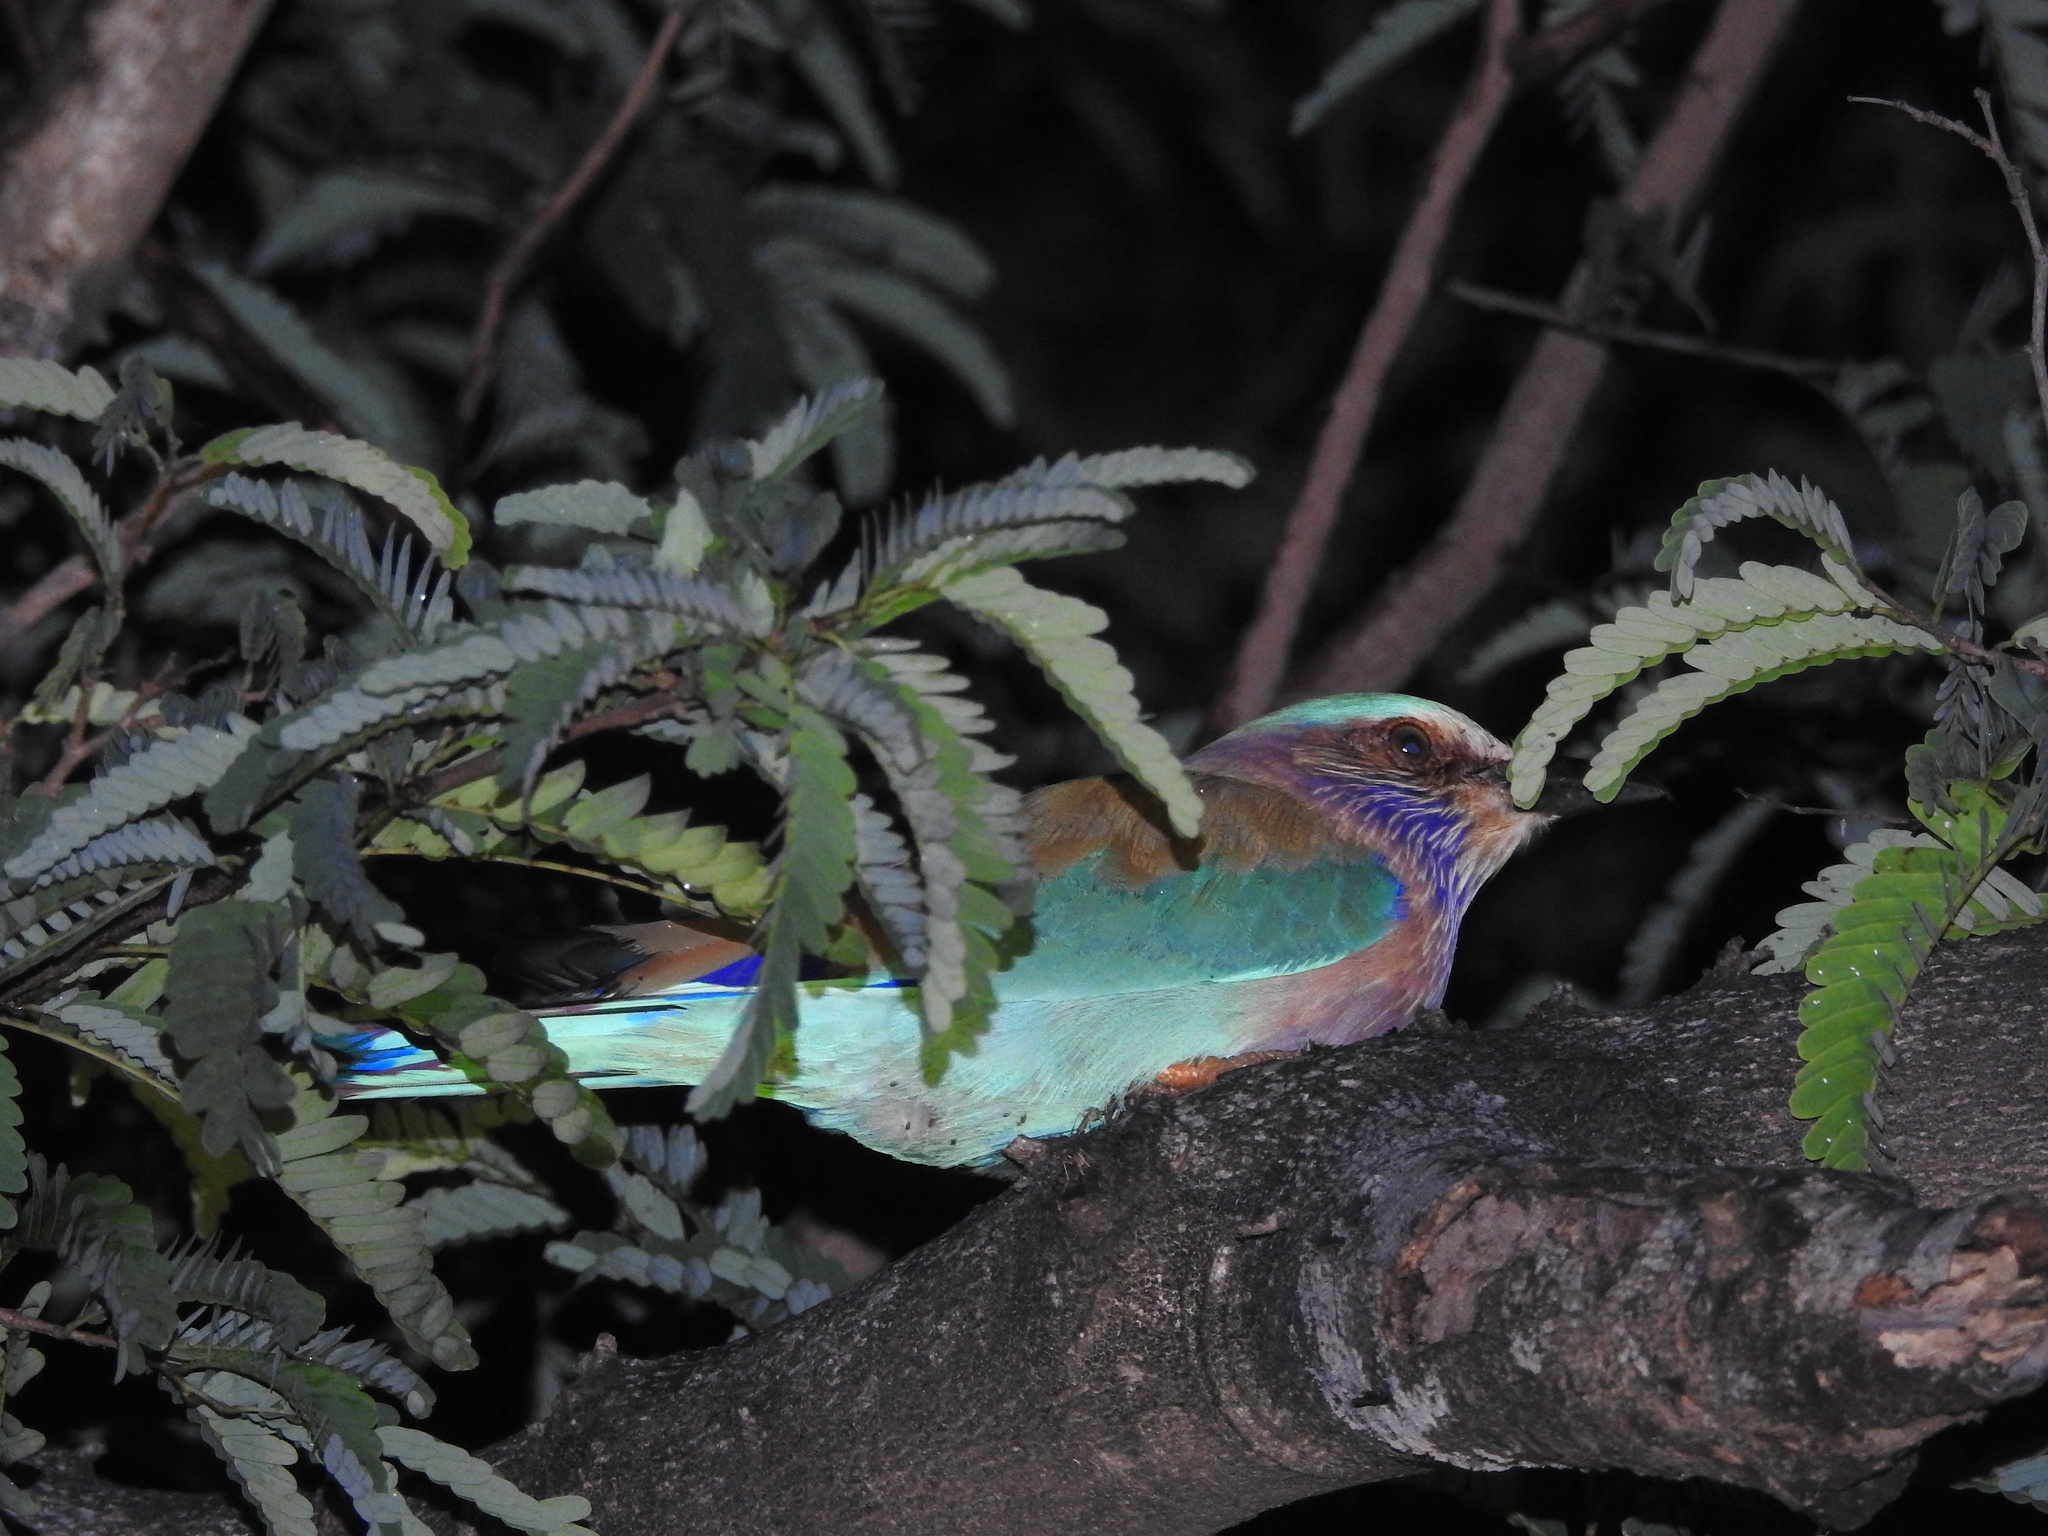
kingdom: Animalia
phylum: Chordata
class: Aves
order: Coraciiformes
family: Coraciidae
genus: Coracias
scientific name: Coracias benghalensis
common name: Indian roller
